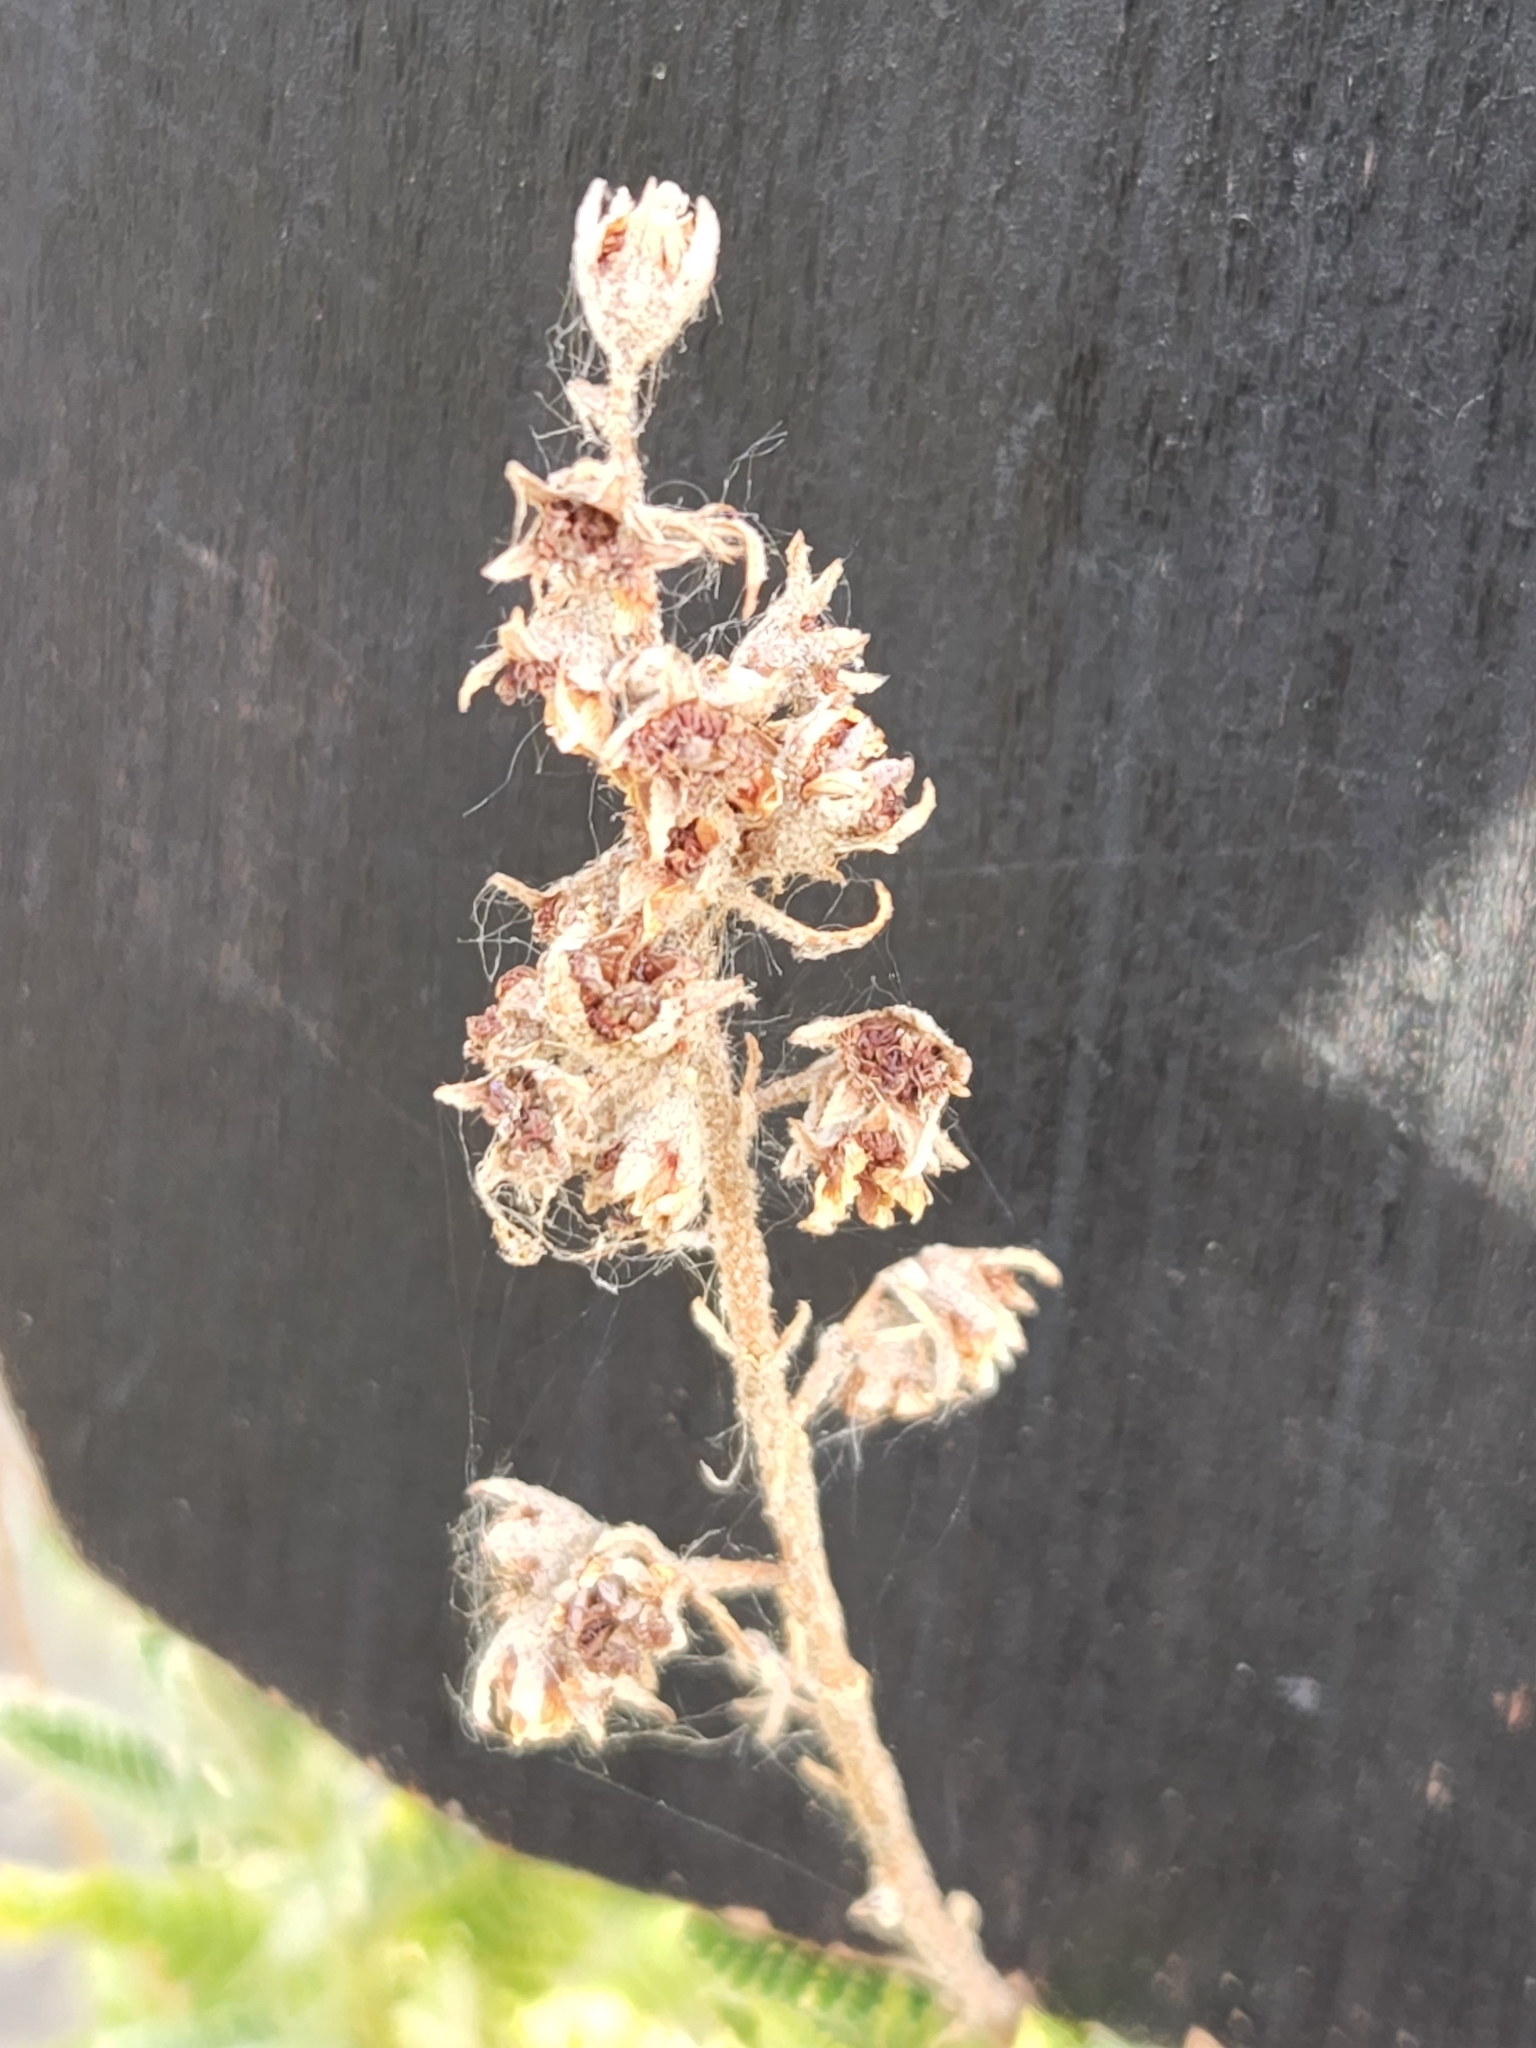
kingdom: Plantae
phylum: Tracheophyta
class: Magnoliopsida
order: Rosales
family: Rosaceae
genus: Chamaebatiaria
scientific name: Chamaebatiaria millefolium
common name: Fernbush
